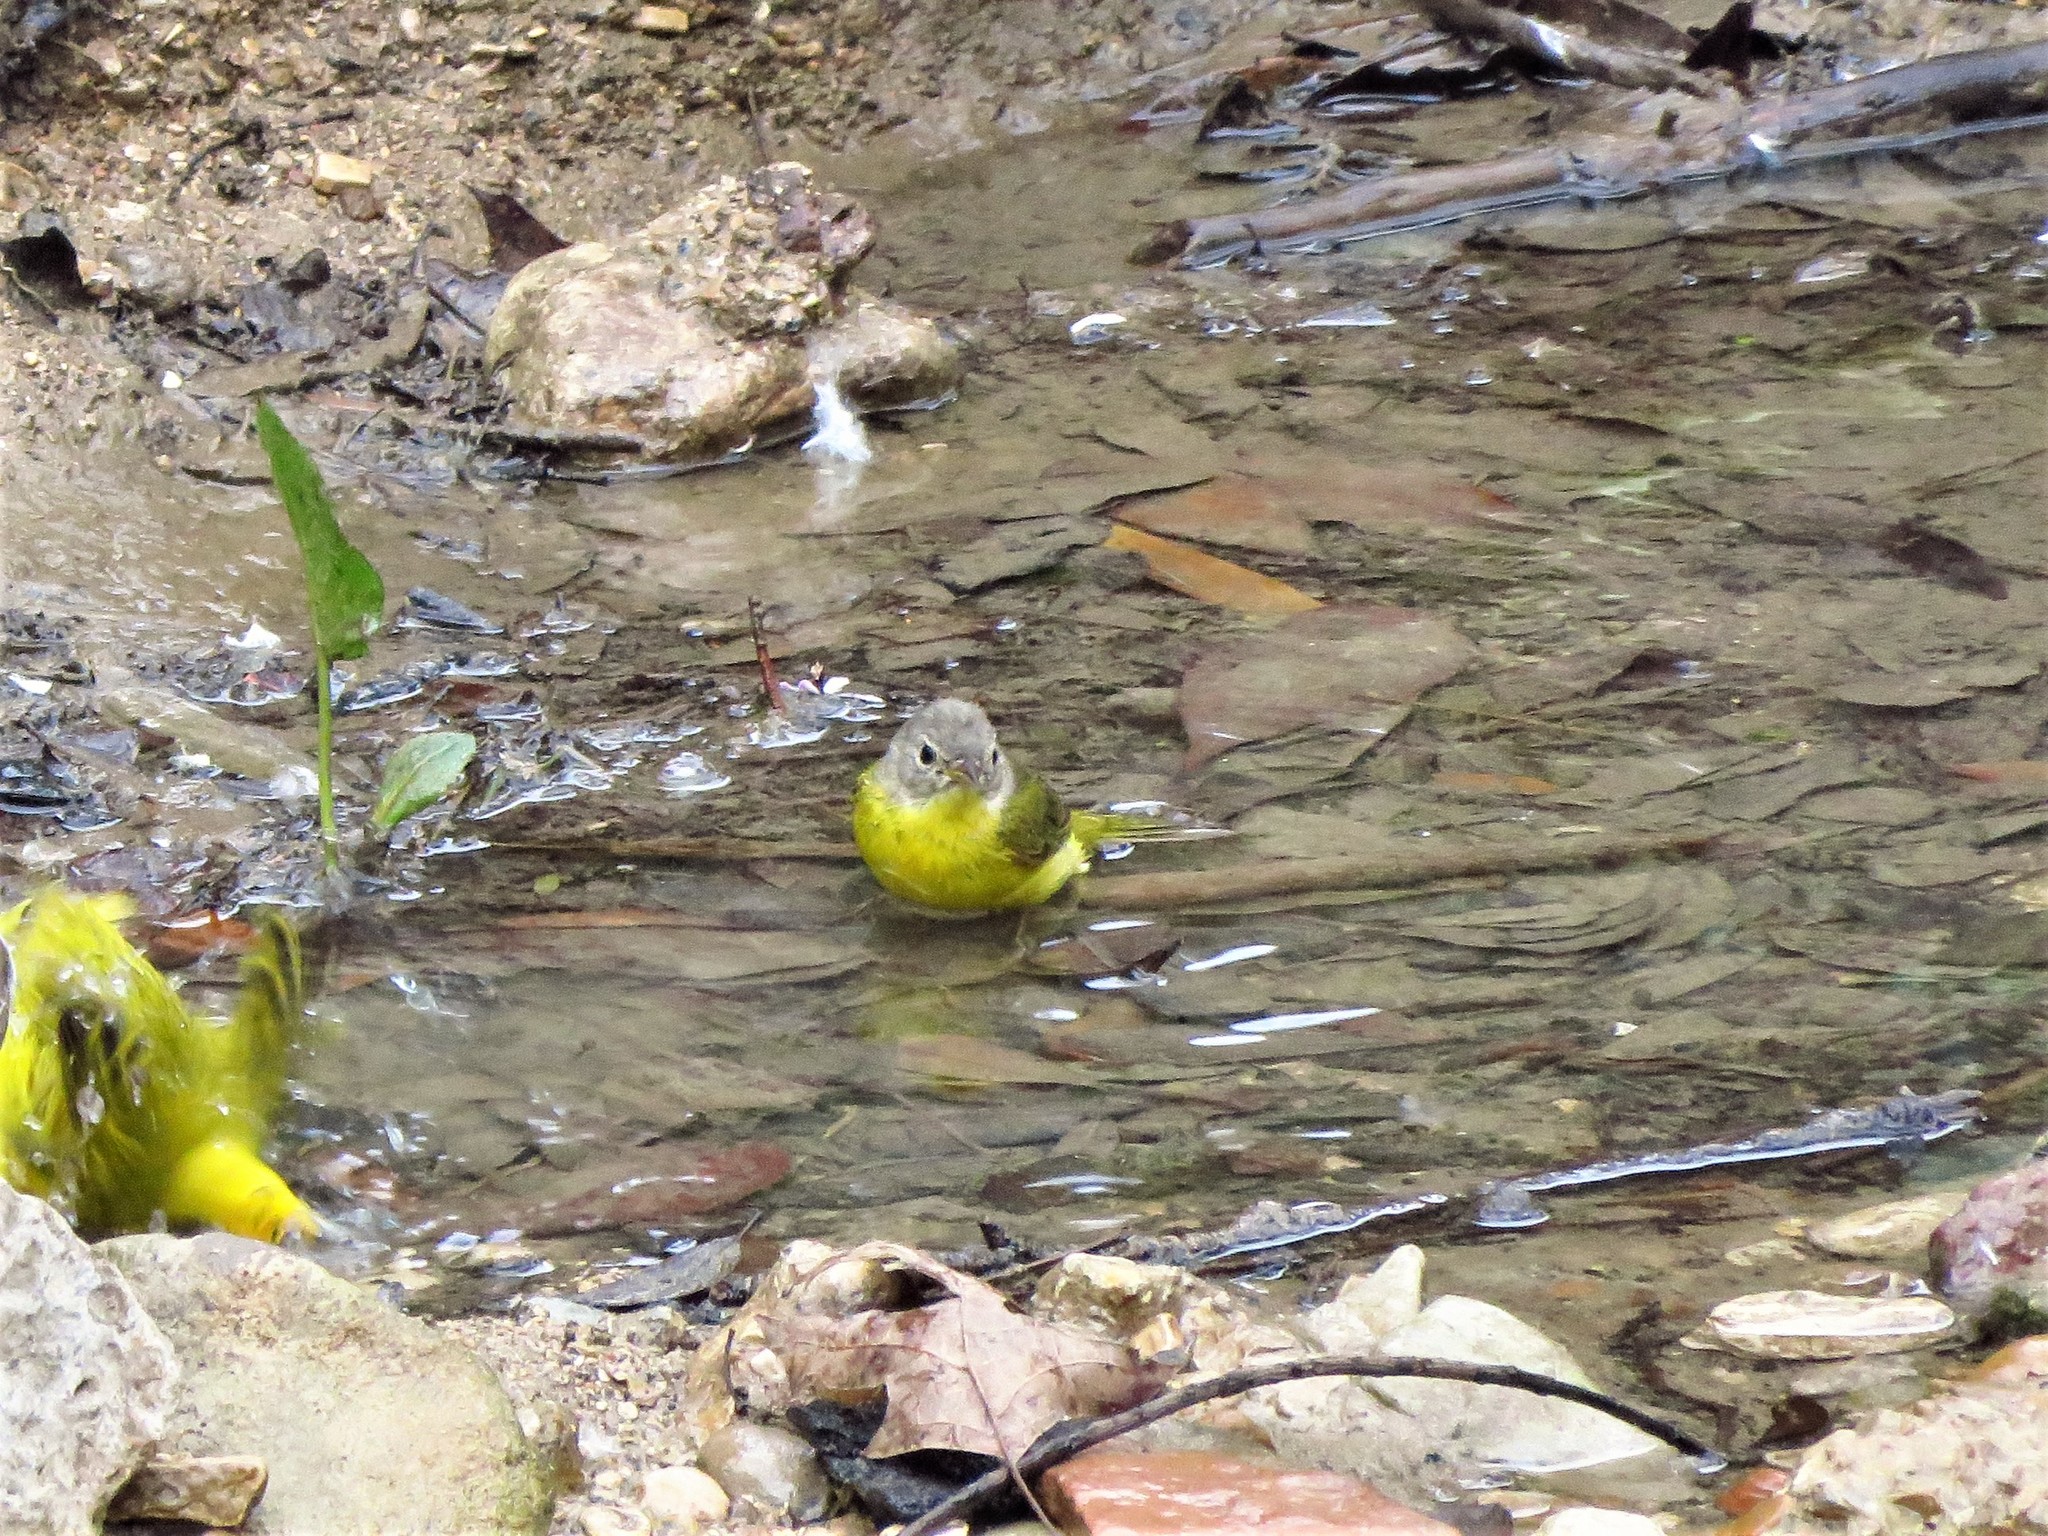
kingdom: Animalia
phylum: Chordata
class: Aves
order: Passeriformes
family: Parulidae
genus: Leiothlypis
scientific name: Leiothlypis ruficapilla
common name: Nashville warbler
